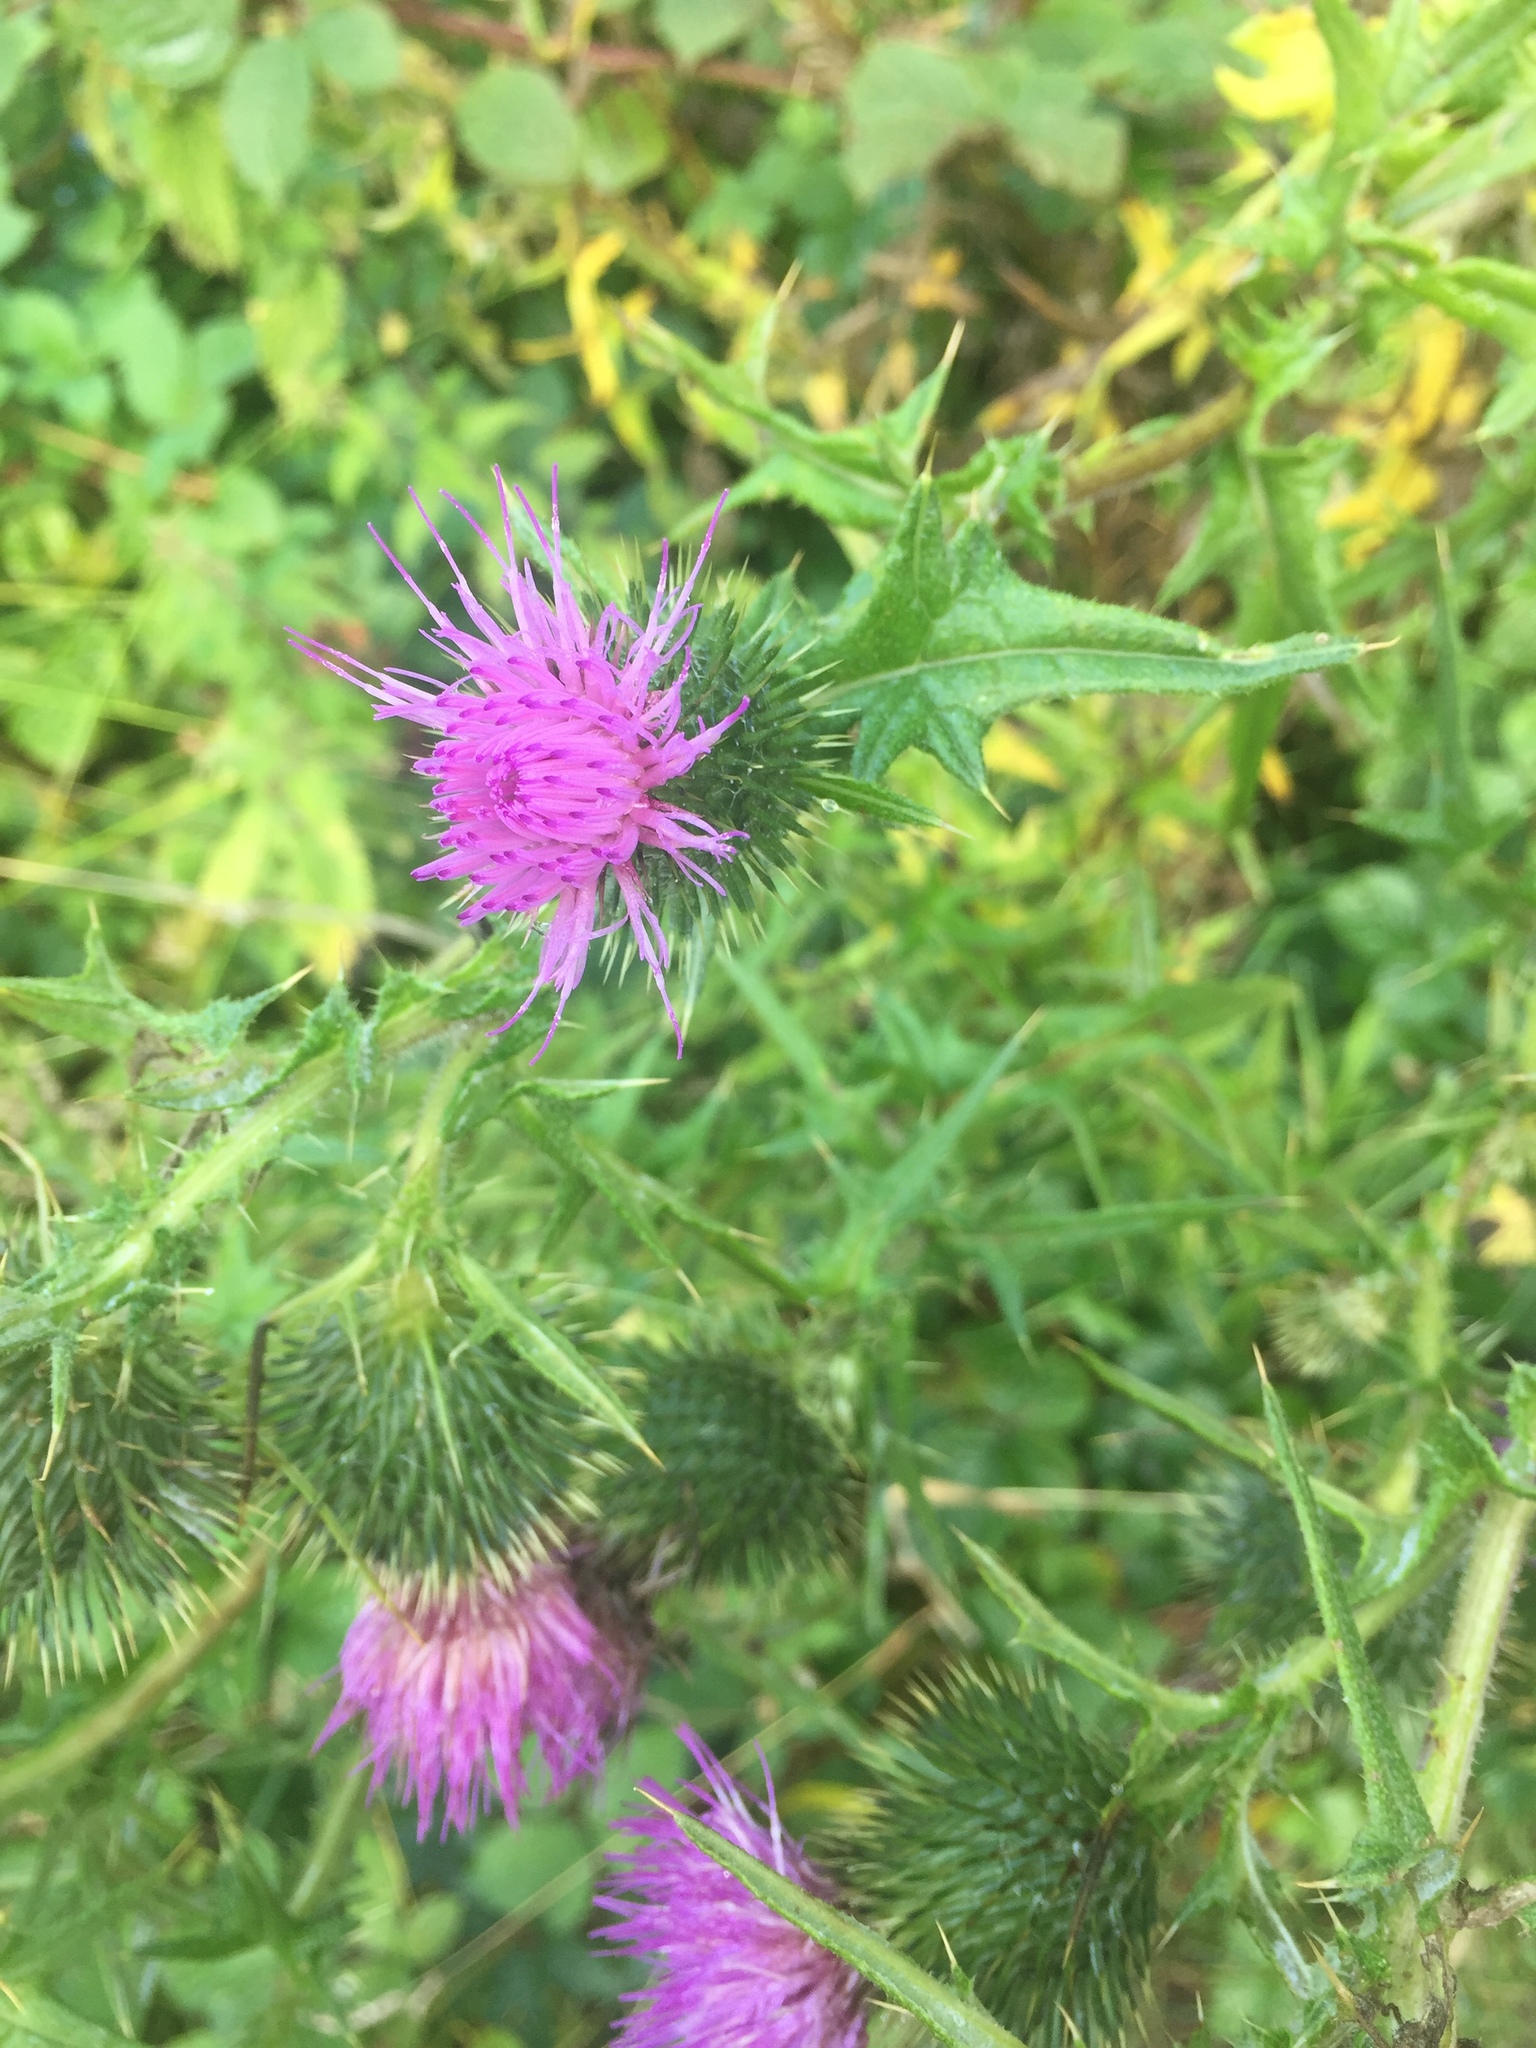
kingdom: Plantae
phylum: Tracheophyta
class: Magnoliopsida
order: Asterales
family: Asteraceae
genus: Cirsium
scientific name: Cirsium vulgare
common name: Bull thistle
